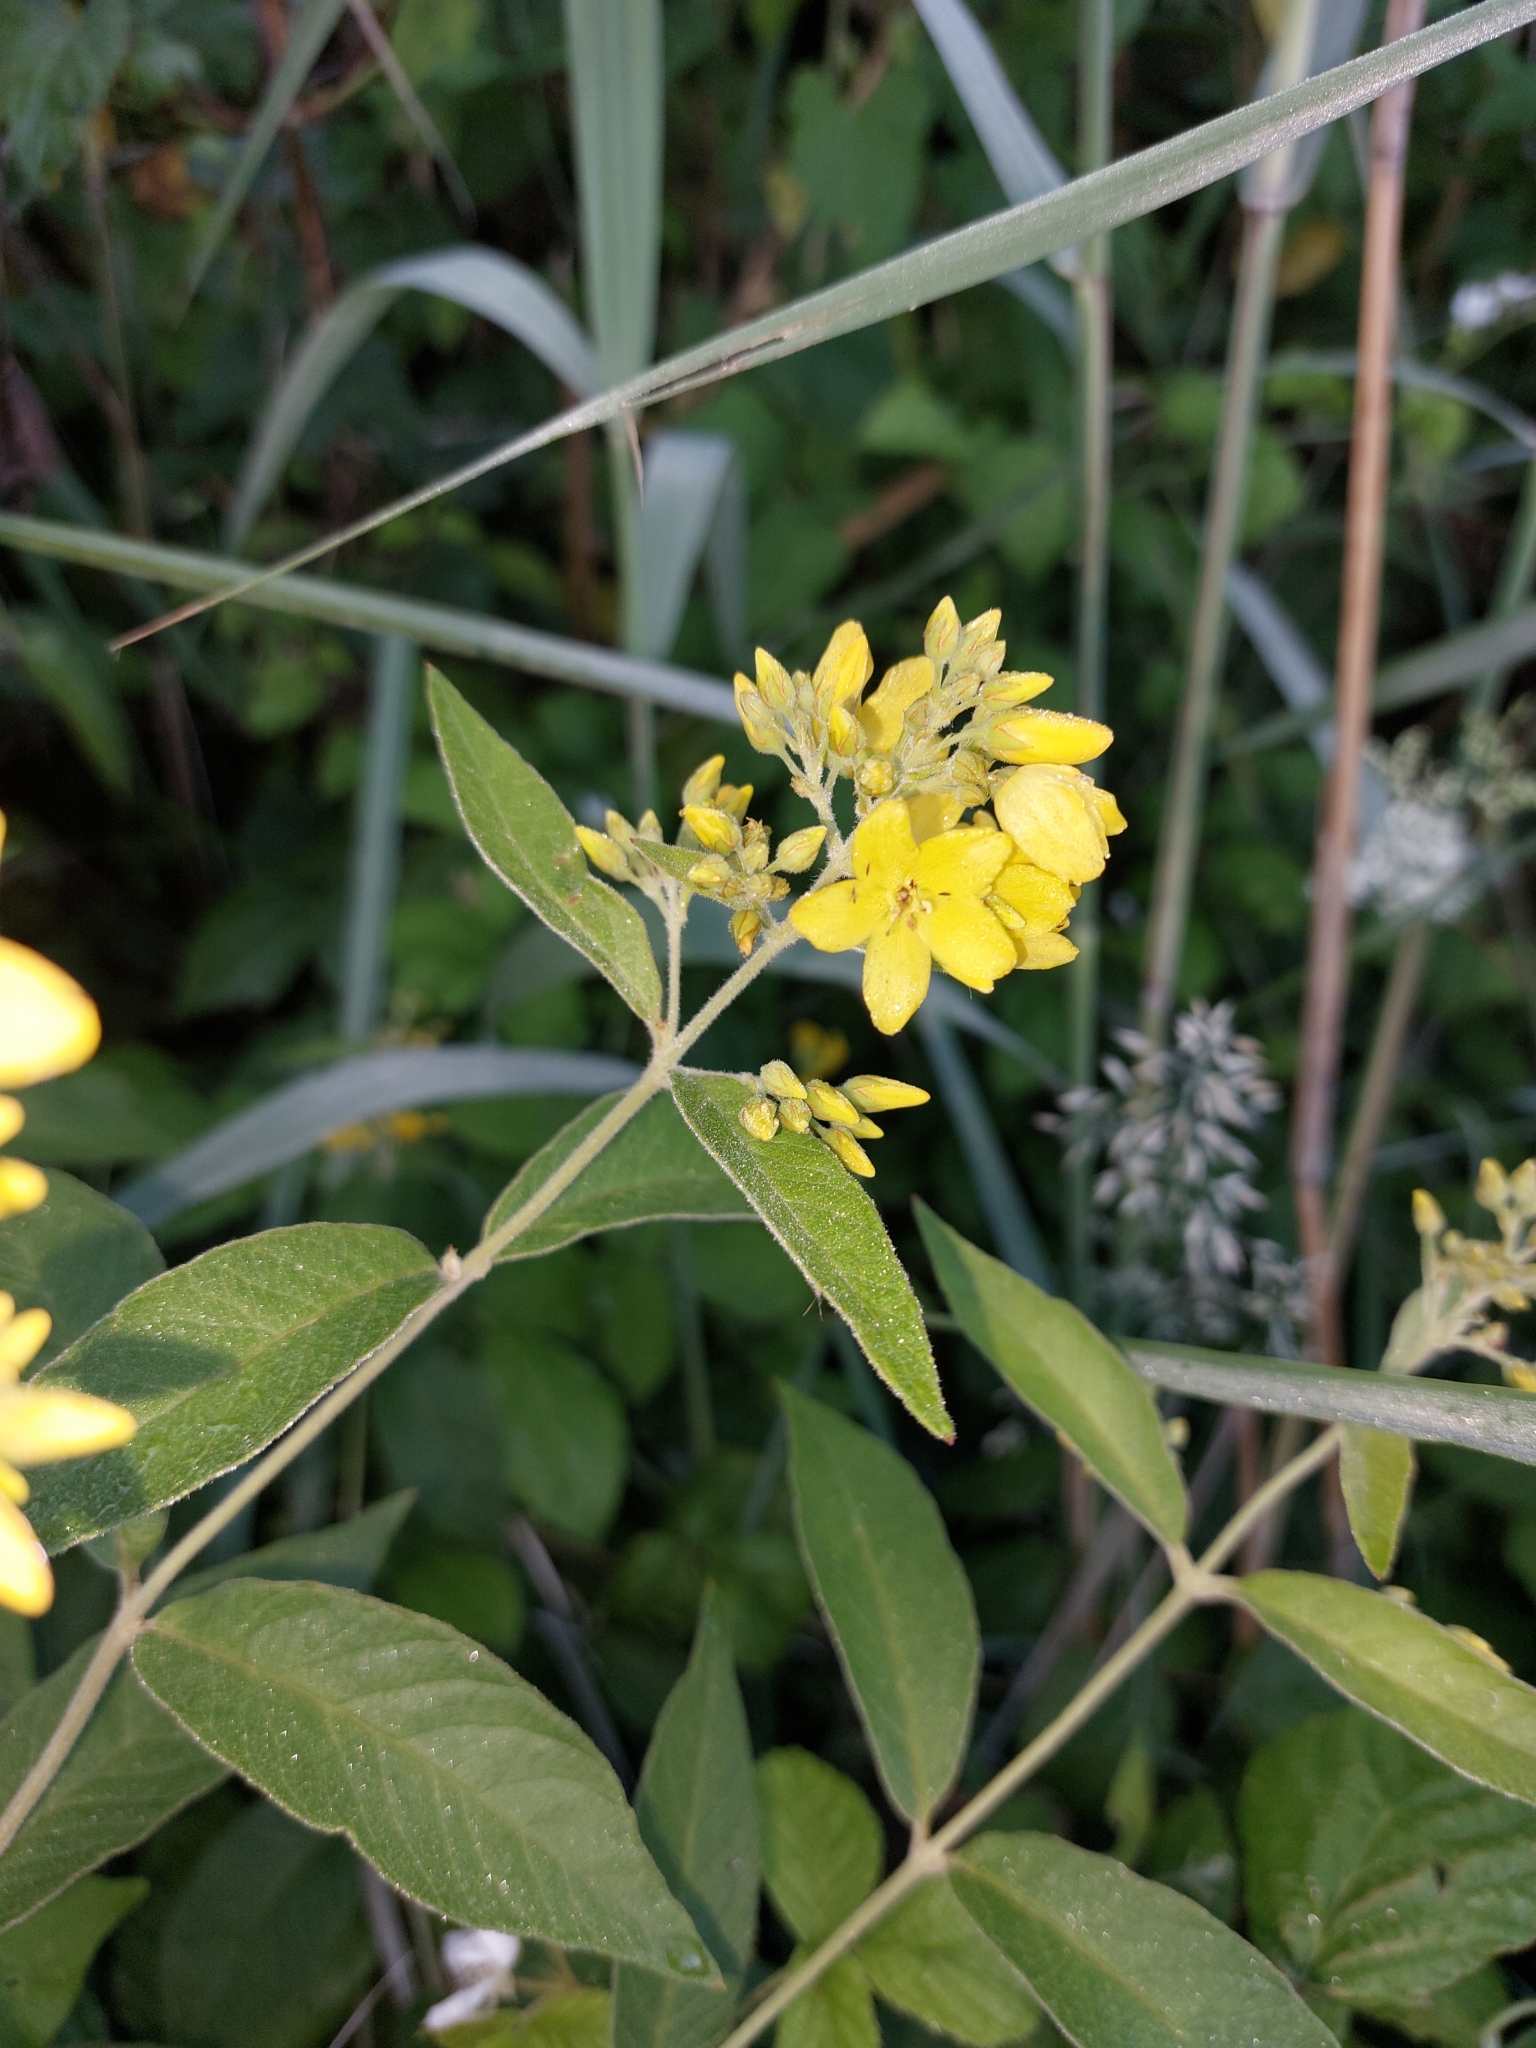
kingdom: Plantae
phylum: Tracheophyta
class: Magnoliopsida
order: Ericales
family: Primulaceae
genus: Lysimachia
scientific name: Lysimachia vulgaris
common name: Yellow loosestrife
